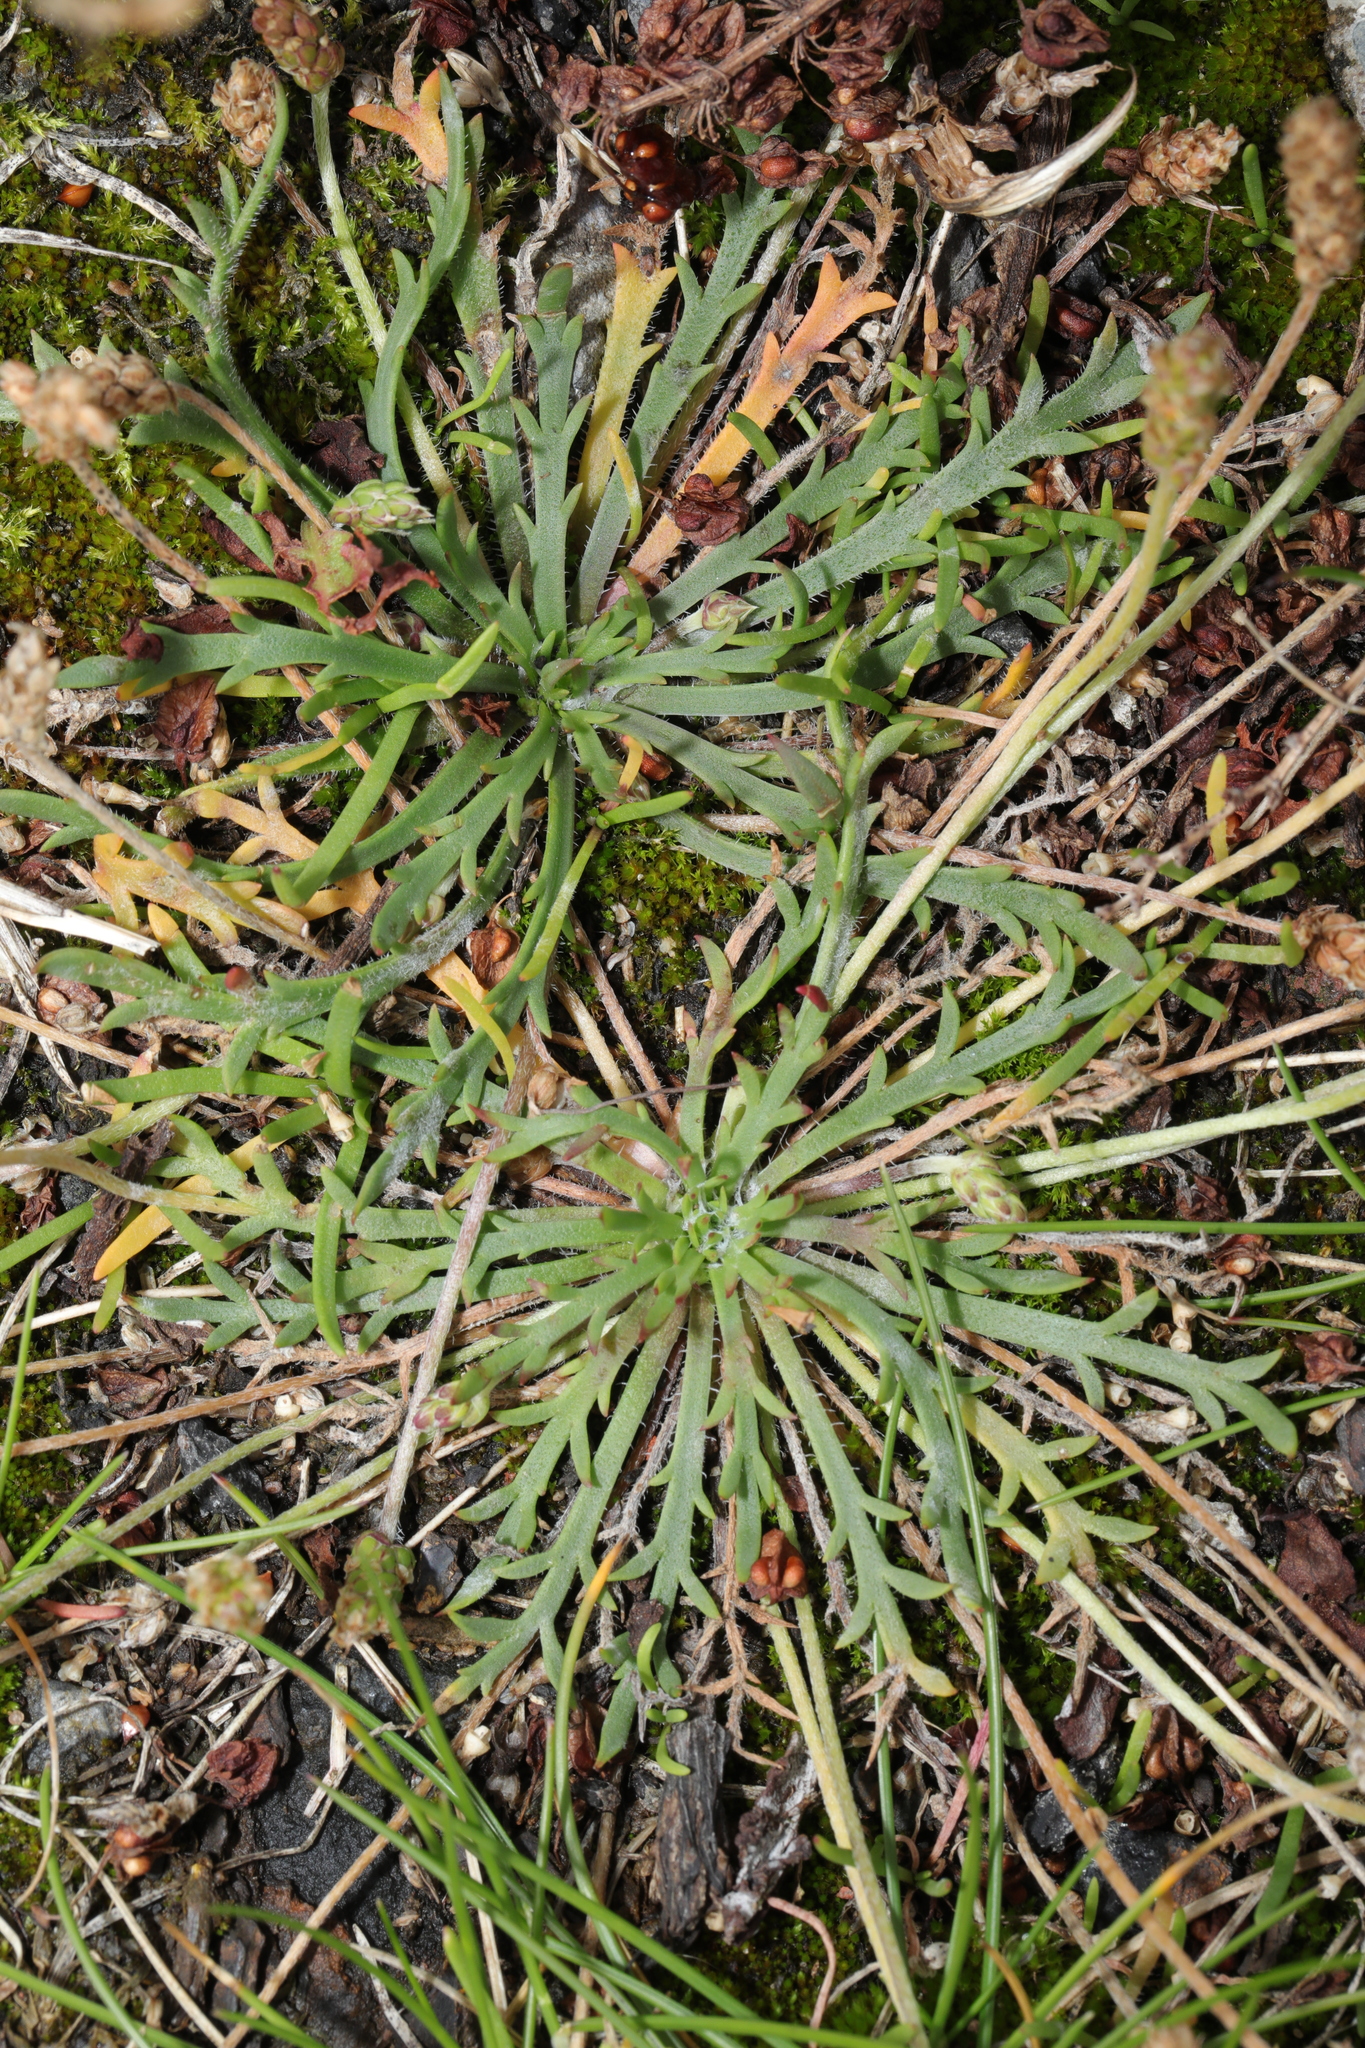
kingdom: Plantae
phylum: Tracheophyta
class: Magnoliopsida
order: Lamiales
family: Plantaginaceae
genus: Plantago
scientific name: Plantago coronopus
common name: Buck's-horn plantain
